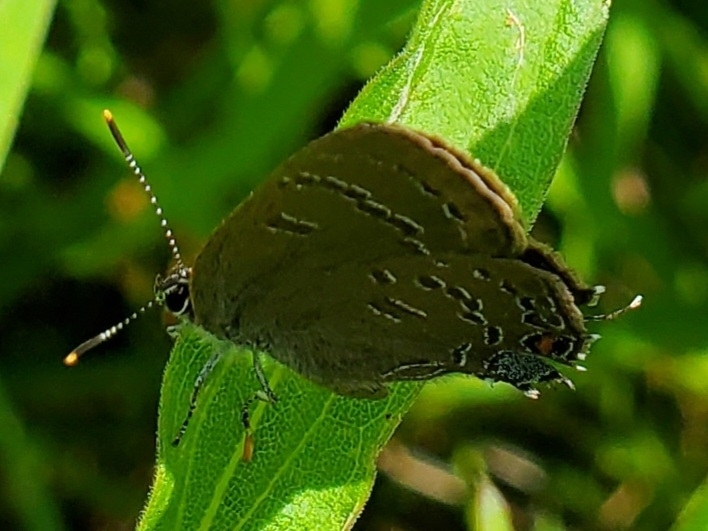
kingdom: Animalia
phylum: Arthropoda
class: Insecta
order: Lepidoptera
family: Lycaenidae
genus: Satyrium
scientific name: Satyrium calanus
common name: Banded hairstreak
